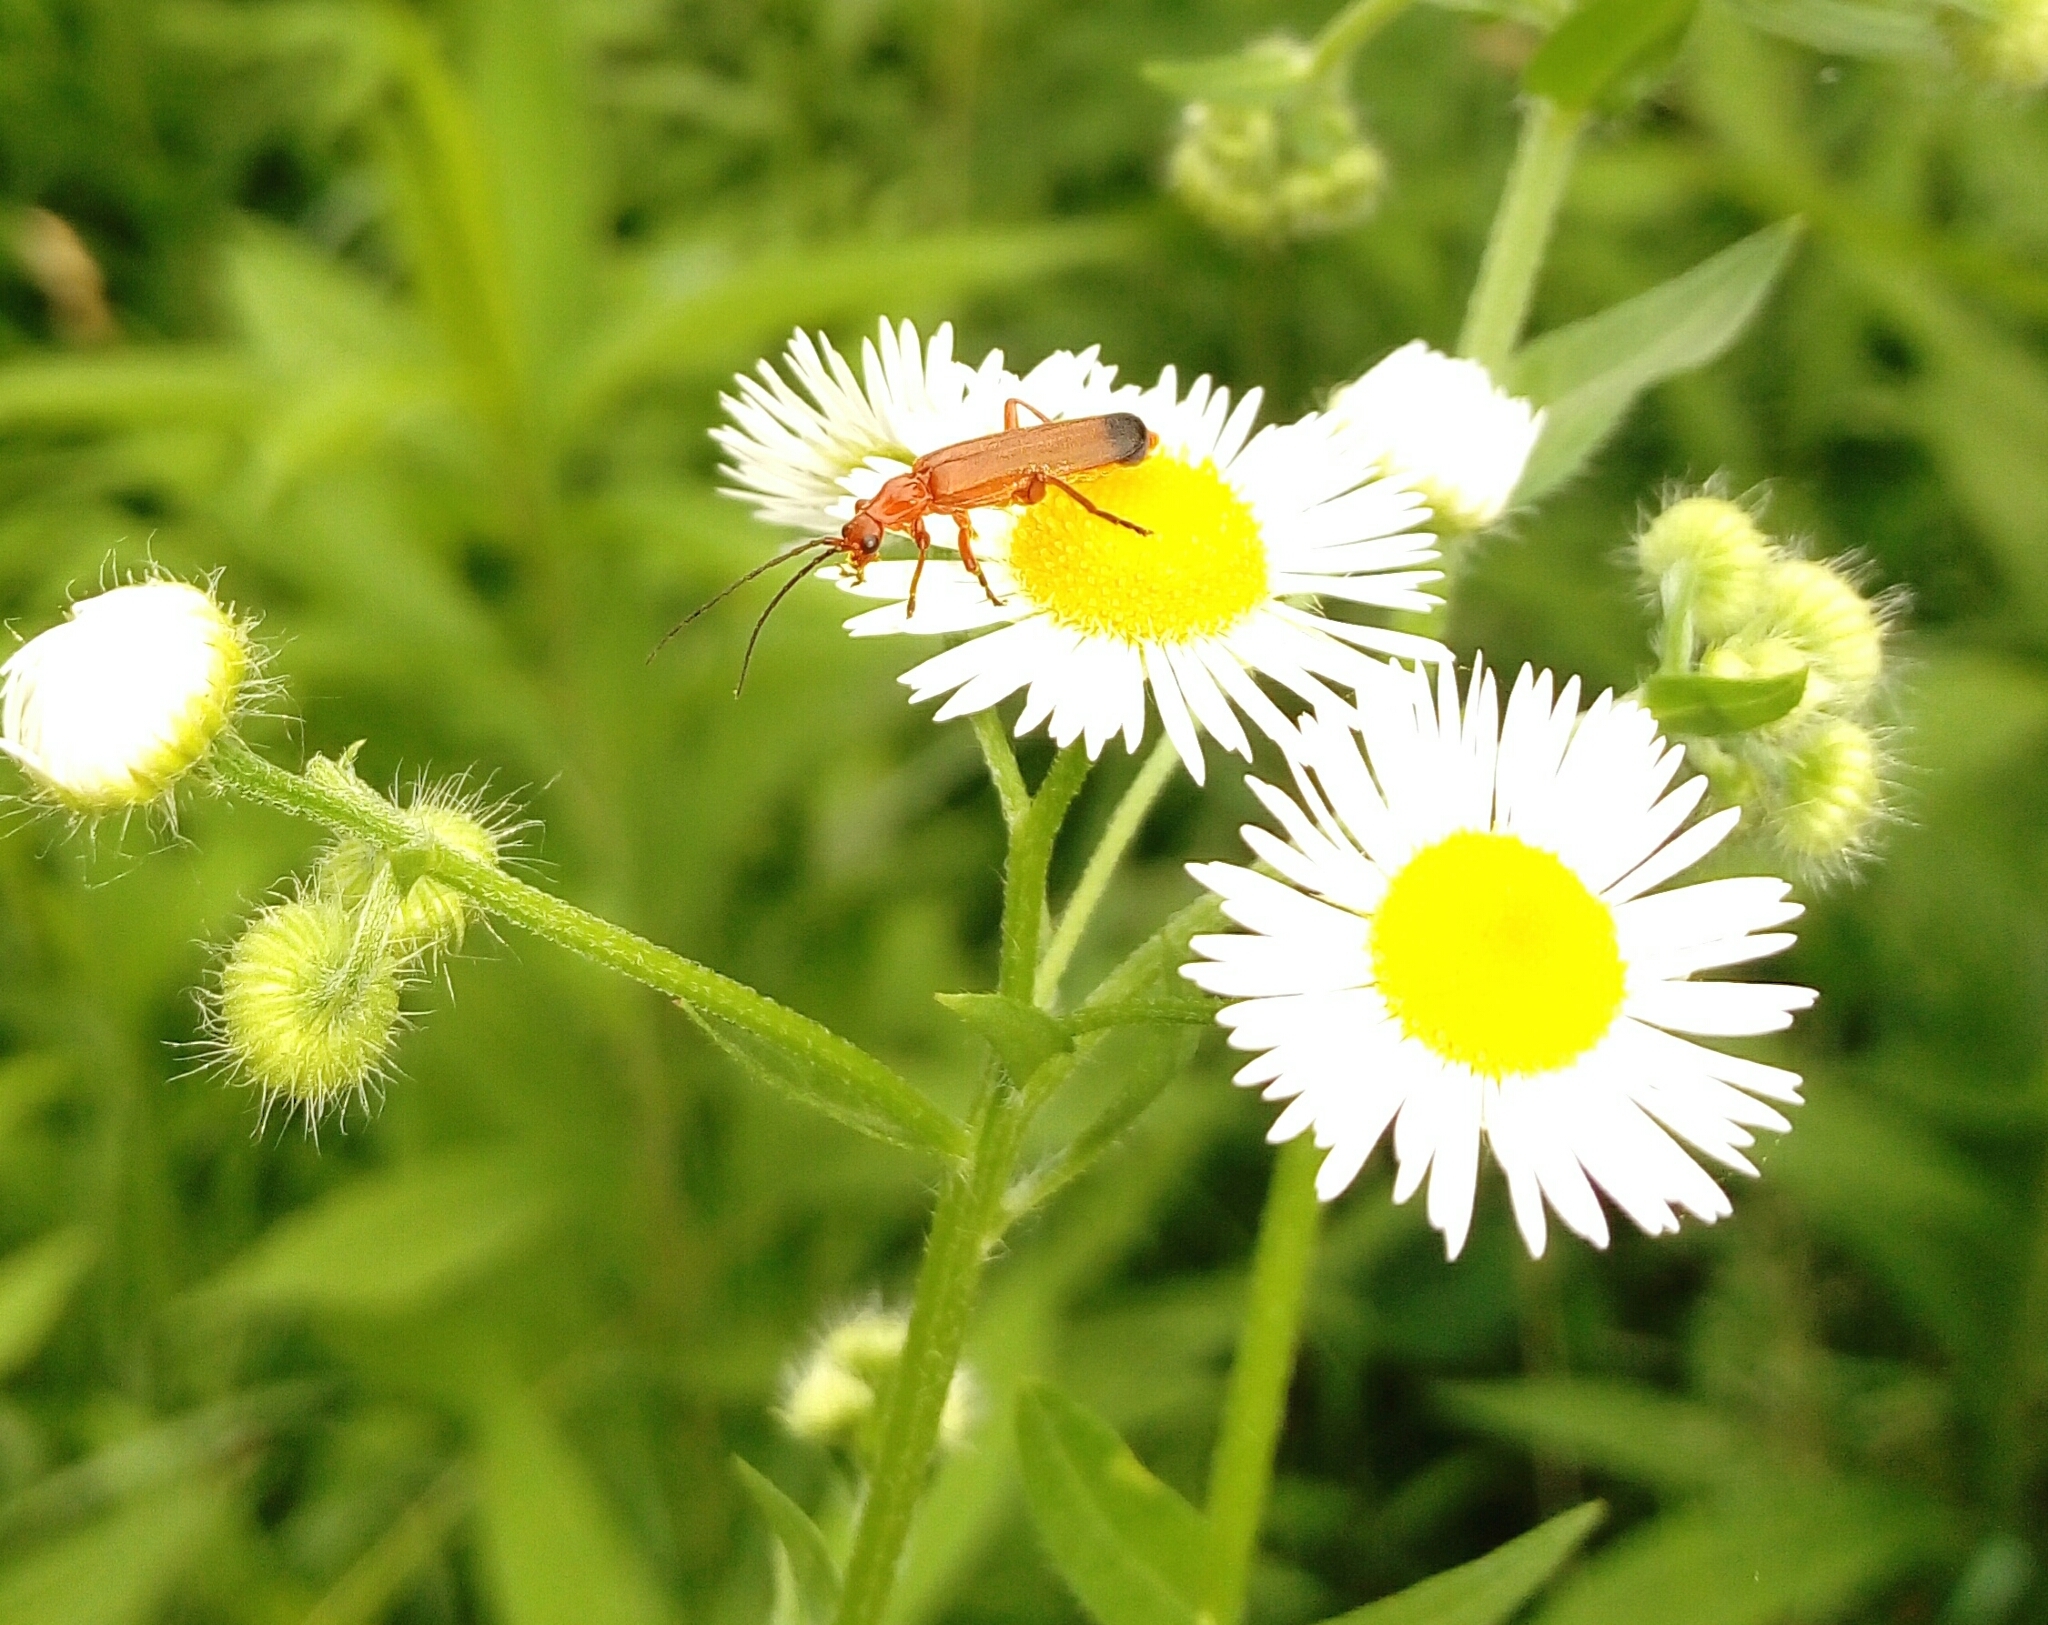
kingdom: Animalia
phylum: Arthropoda
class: Insecta
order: Coleoptera
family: Cantharidae
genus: Rhagonycha
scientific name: Rhagonycha fulva
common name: Common red soldier beetle
